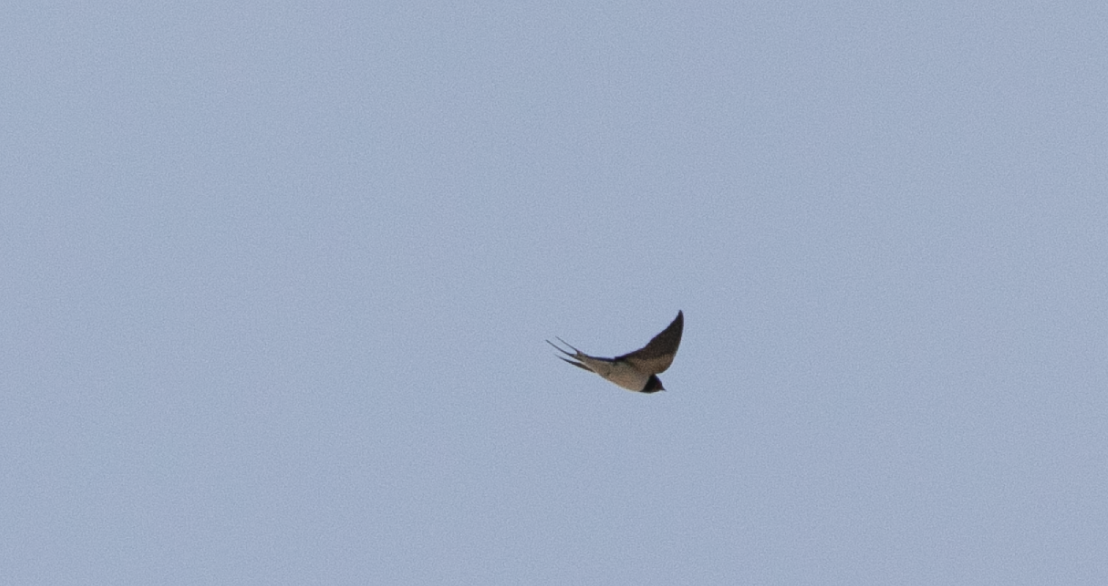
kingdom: Animalia
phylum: Chordata
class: Aves
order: Passeriformes
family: Hirundinidae
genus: Hirundo
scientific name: Hirundo rustica
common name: Barn swallow
